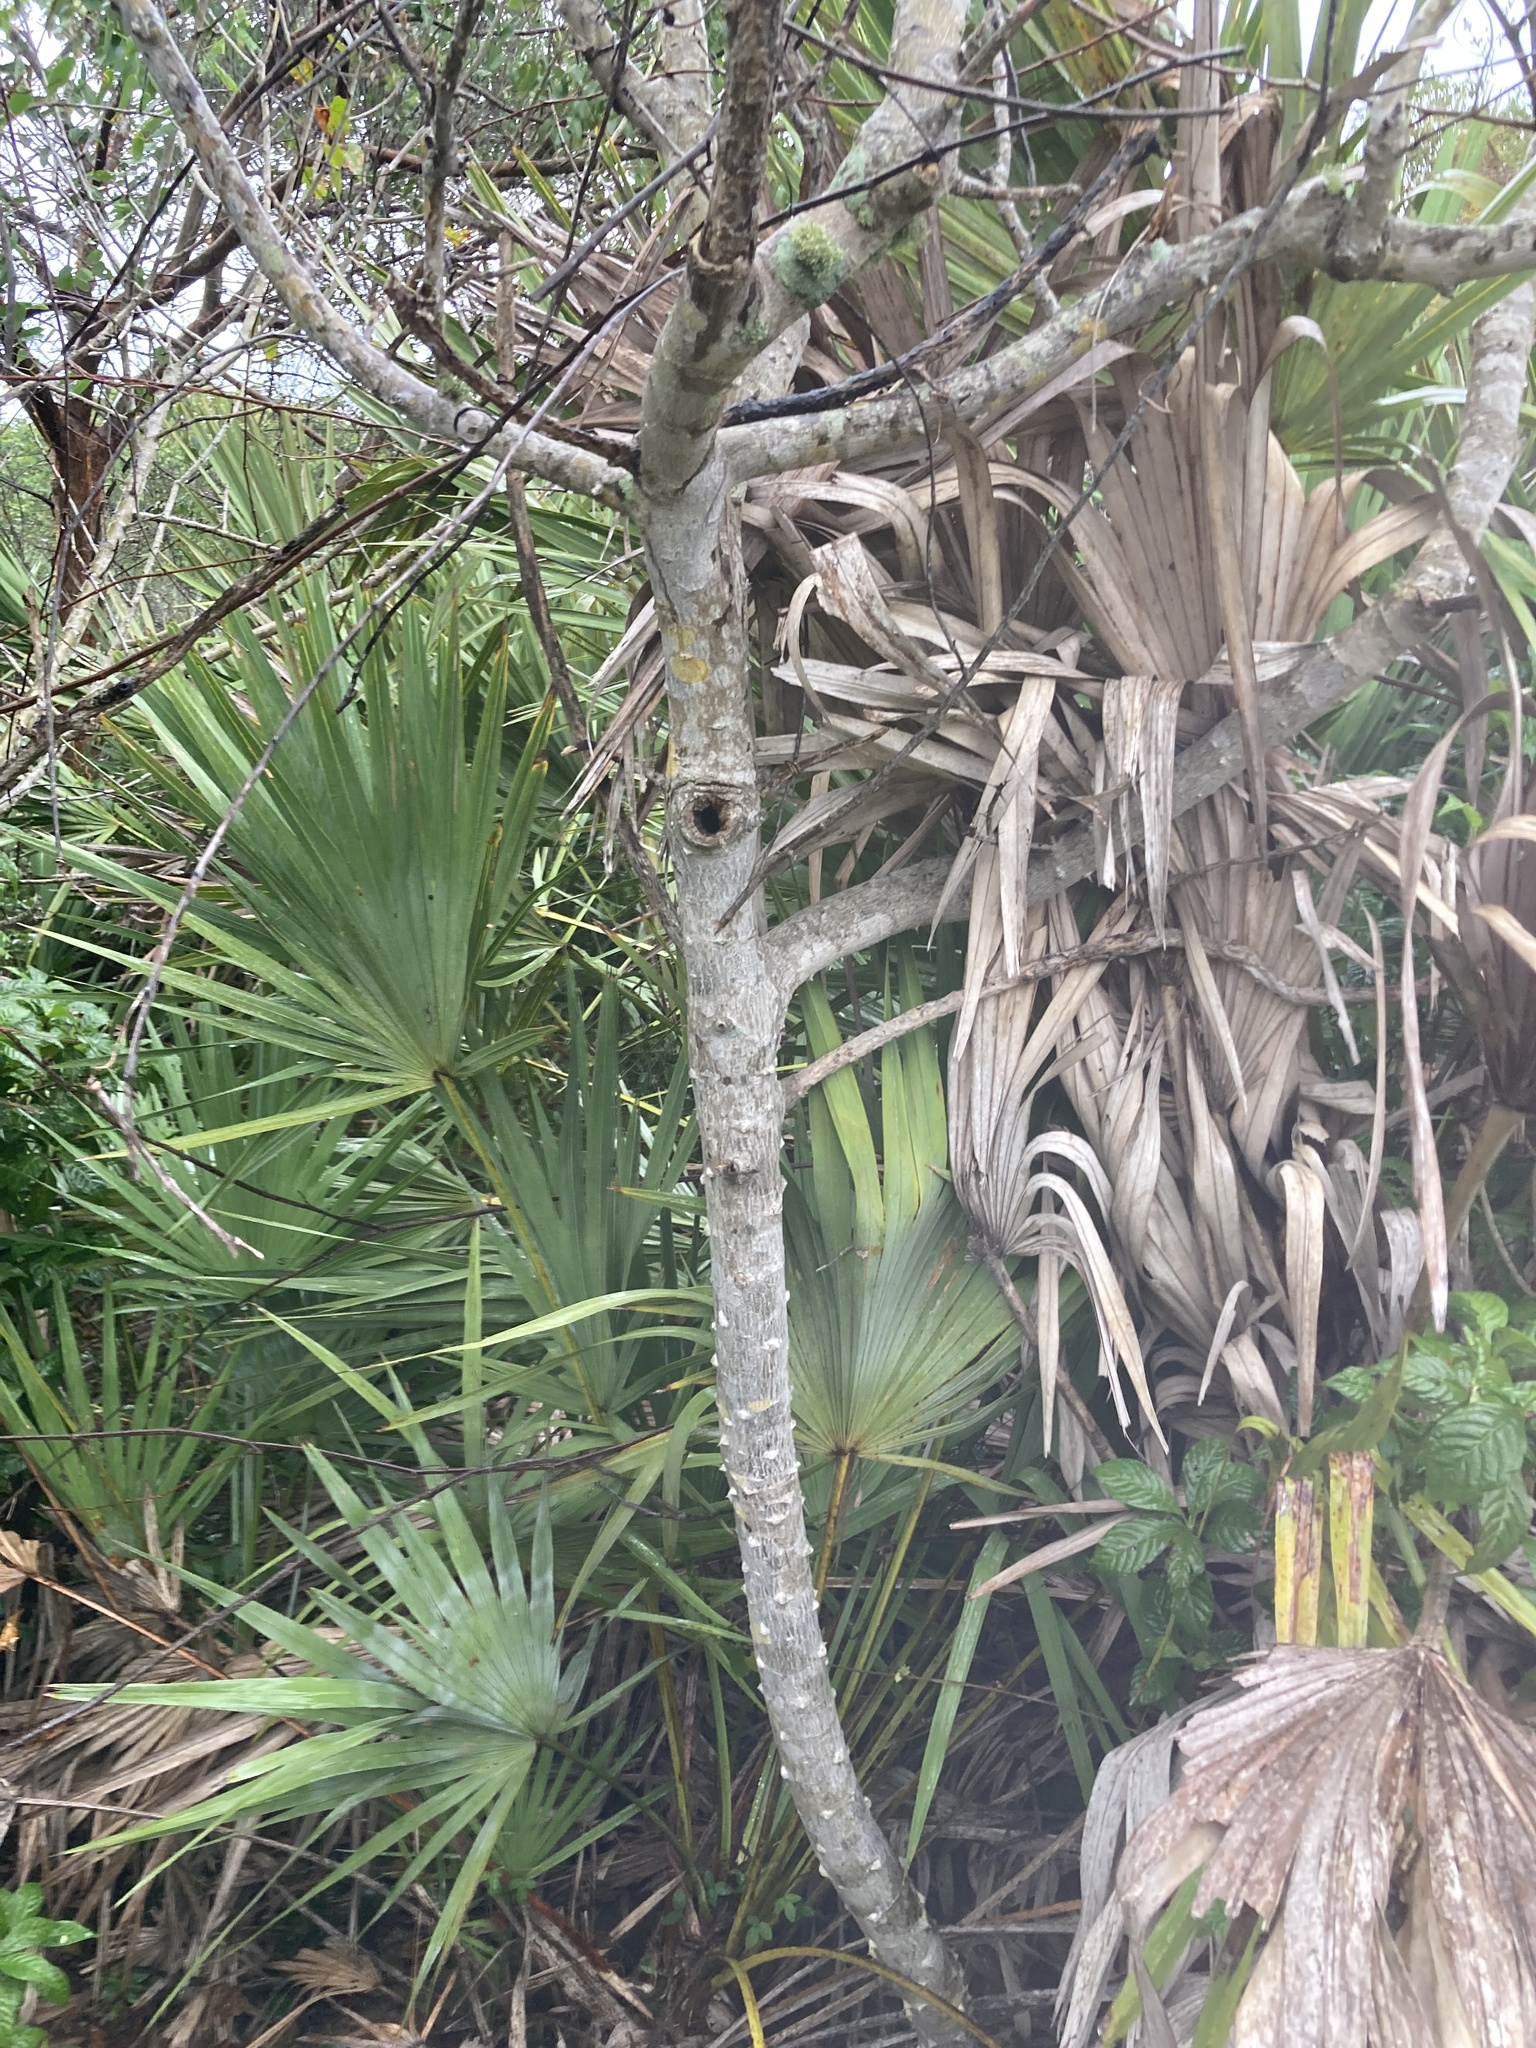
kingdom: Plantae
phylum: Tracheophyta
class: Magnoliopsida
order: Sapindales
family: Rutaceae
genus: Zanthoxylum
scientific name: Zanthoxylum clava-herculis
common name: Hercules'-club
